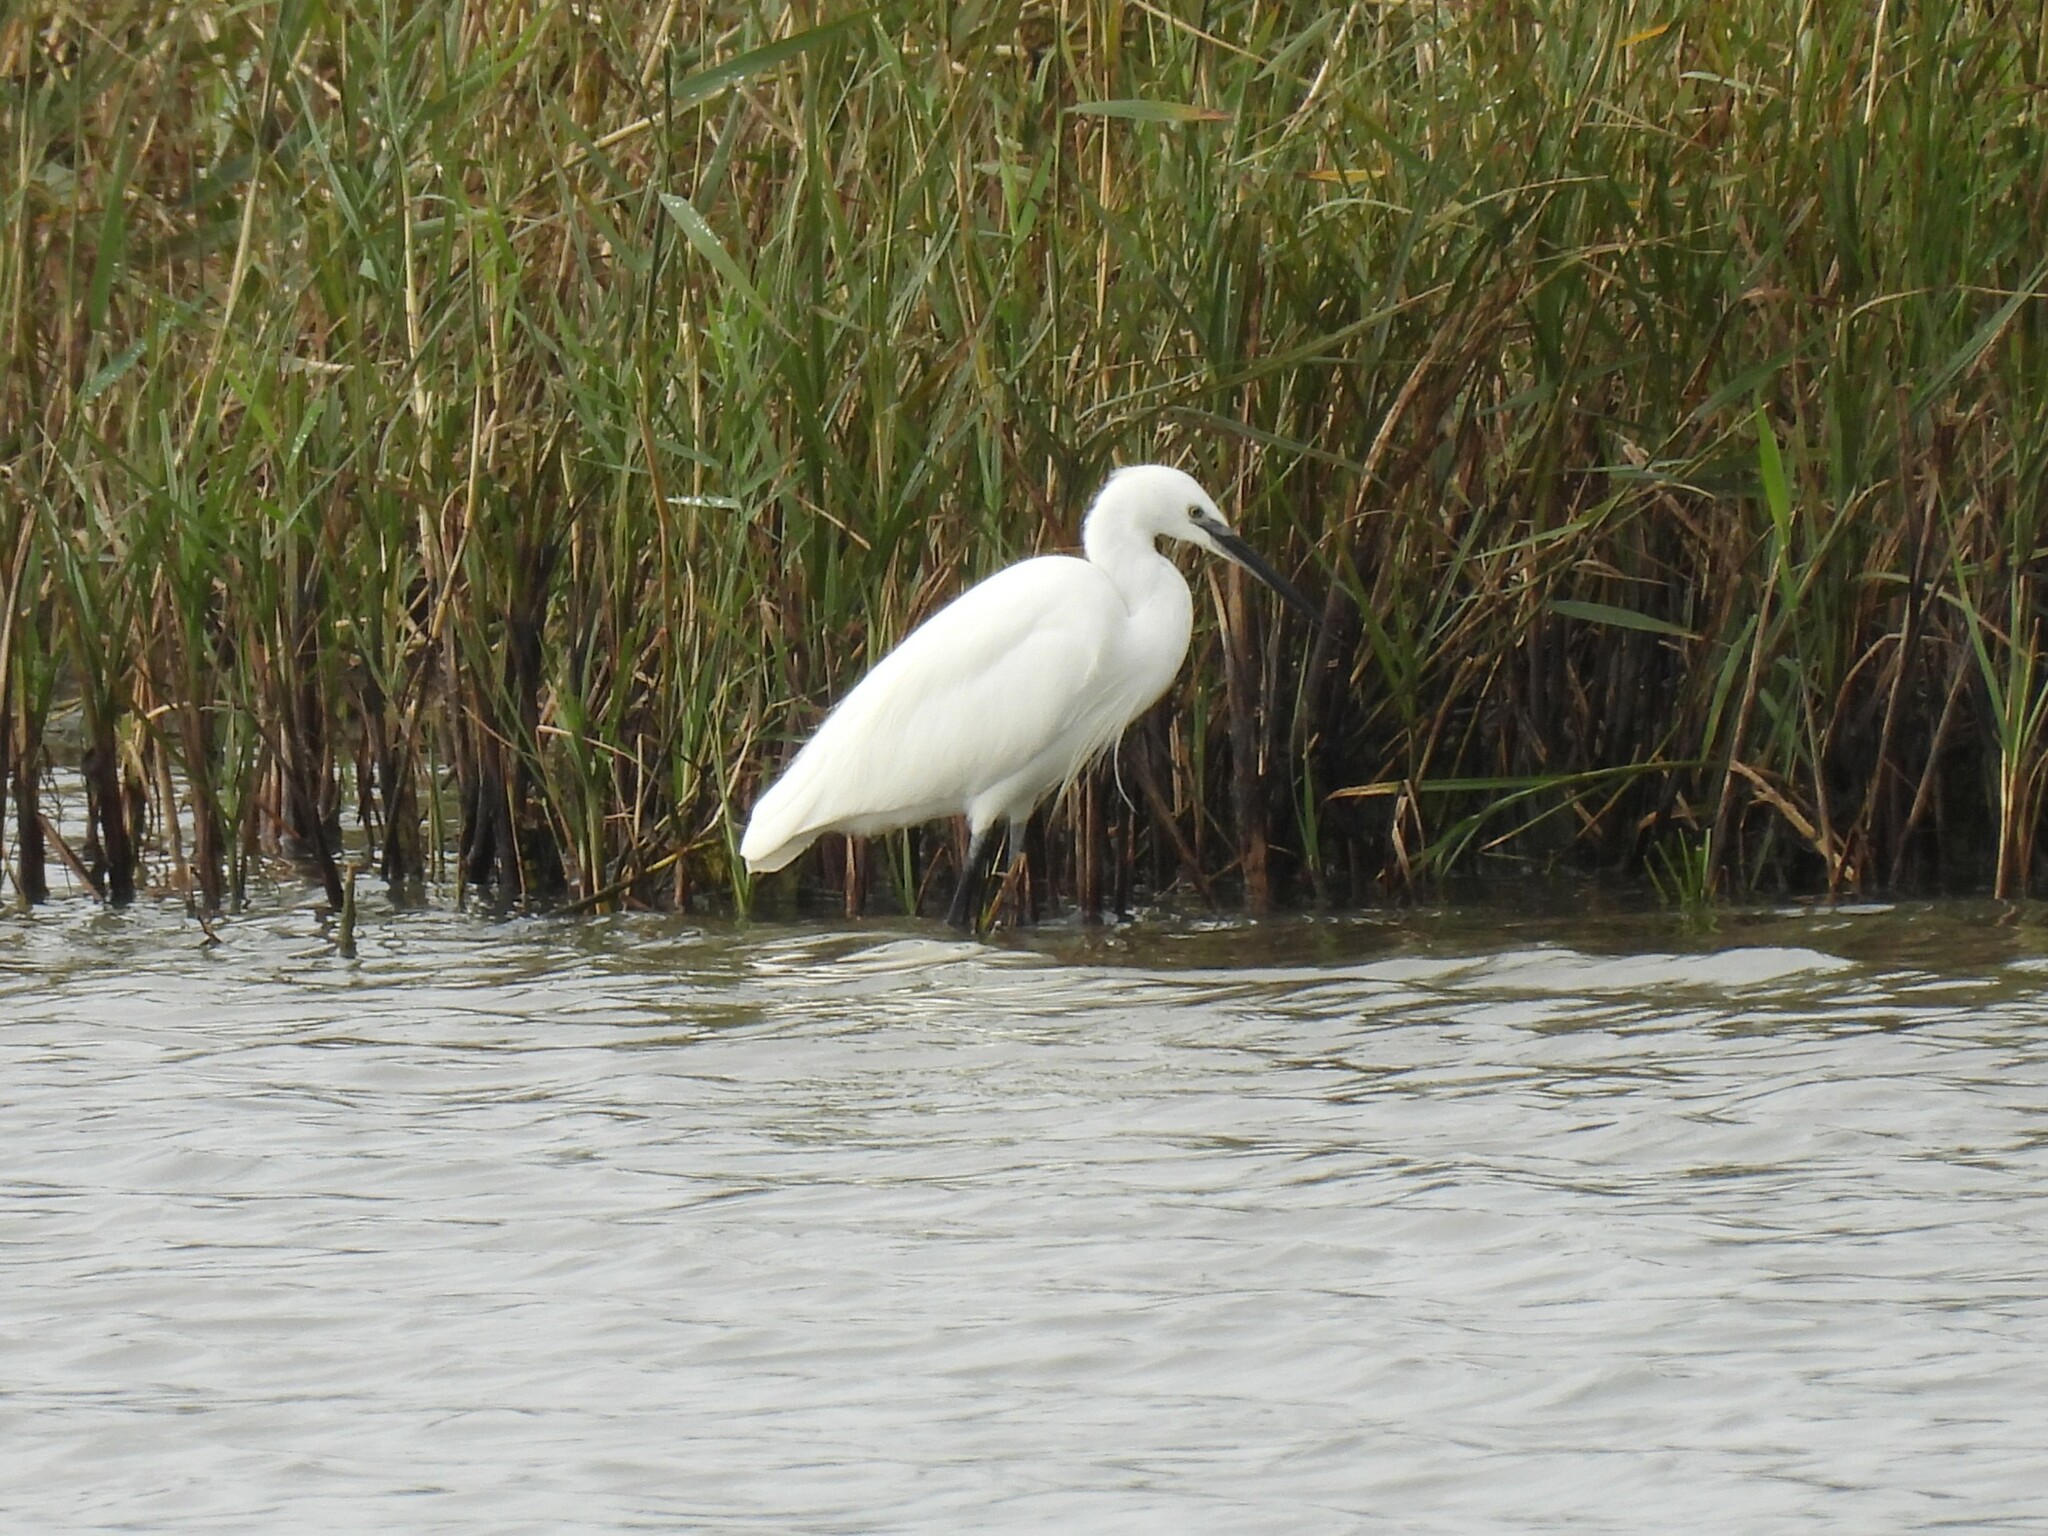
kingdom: Animalia
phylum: Chordata
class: Aves
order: Pelecaniformes
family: Ardeidae
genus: Egretta
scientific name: Egretta garzetta
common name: Little egret
